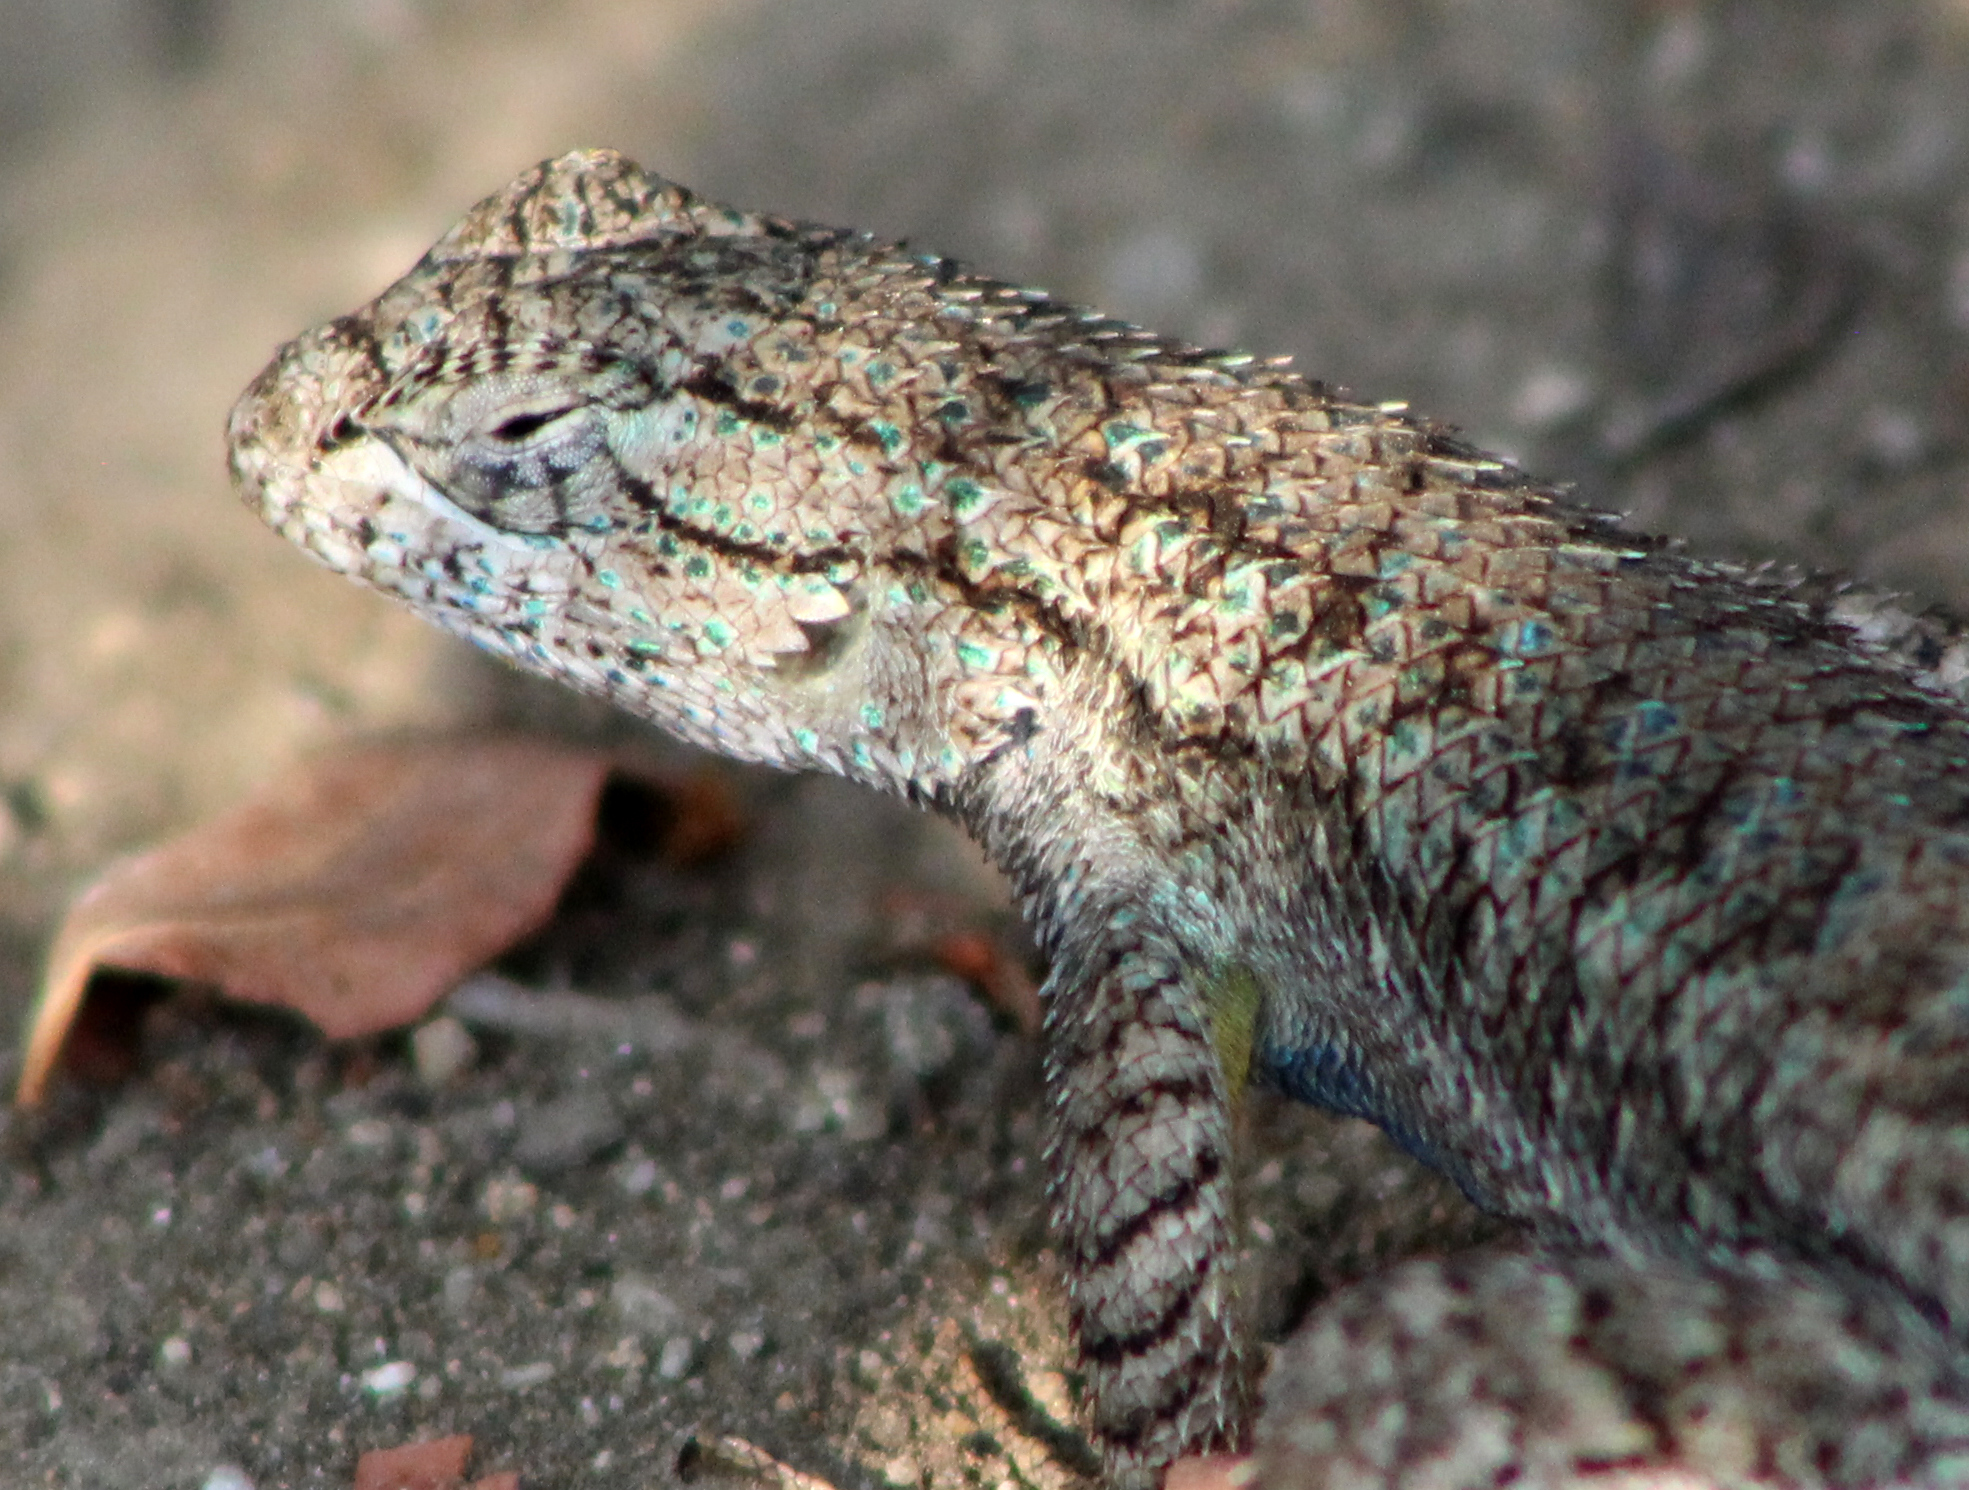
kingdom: Animalia
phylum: Chordata
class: Squamata
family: Phrynosomatidae
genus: Sceloporus
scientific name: Sceloporus occidentalis
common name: Western fence lizard
